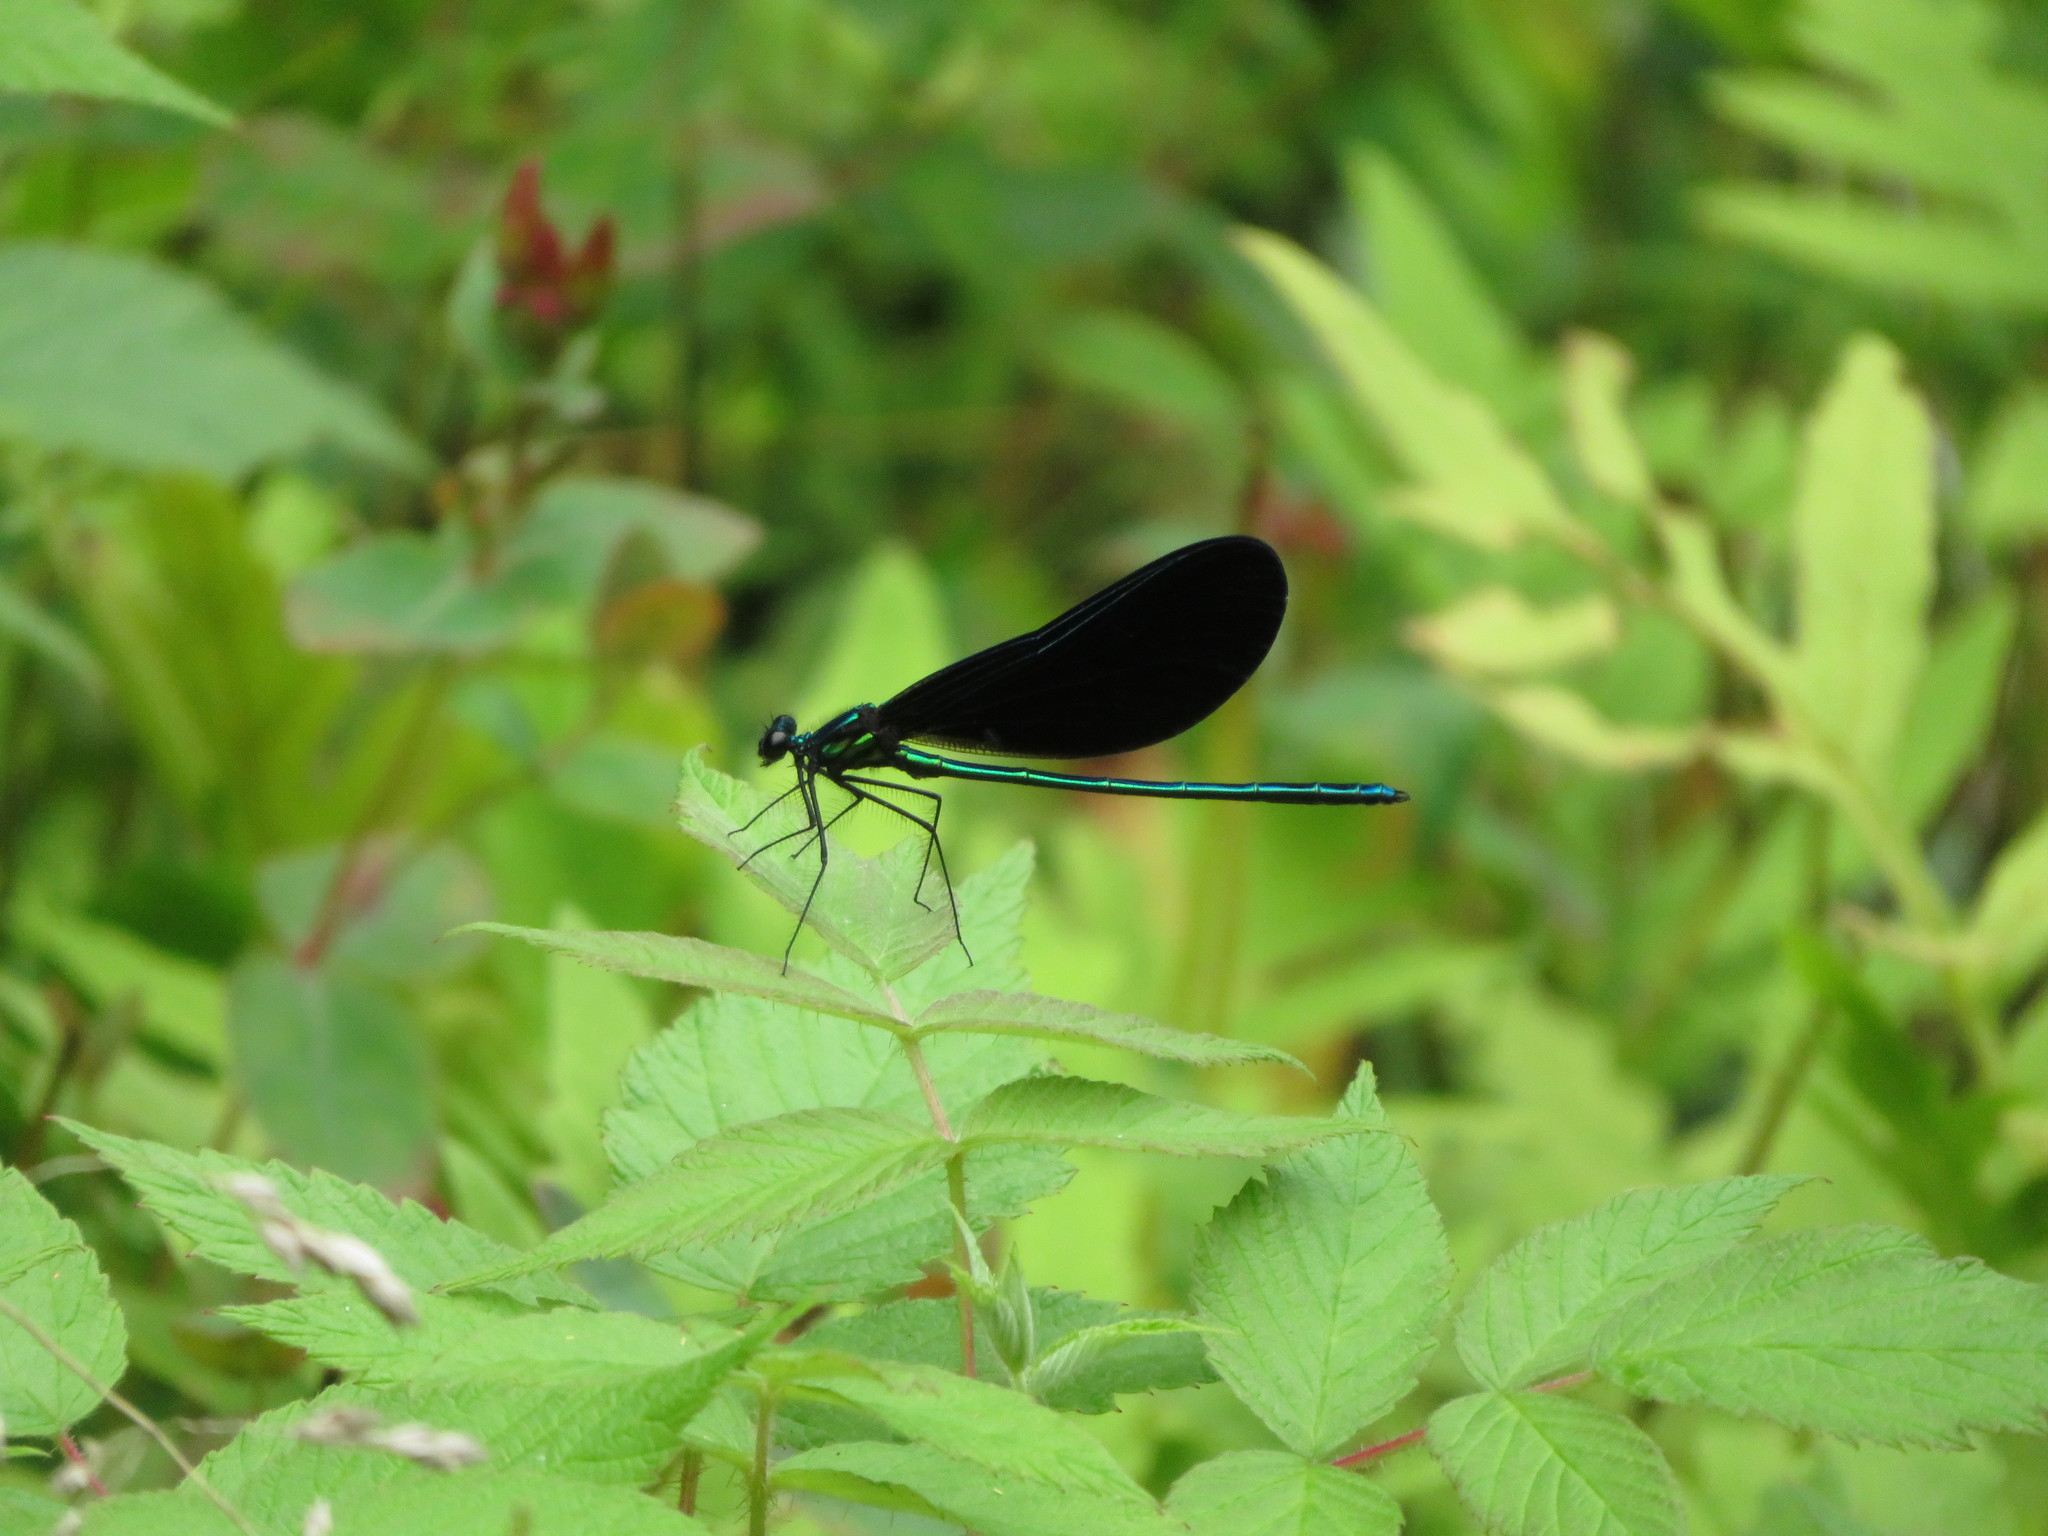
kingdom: Animalia
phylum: Arthropoda
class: Insecta
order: Odonata
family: Calopterygidae
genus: Calopteryx
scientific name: Calopteryx maculata
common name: Ebony jewelwing
